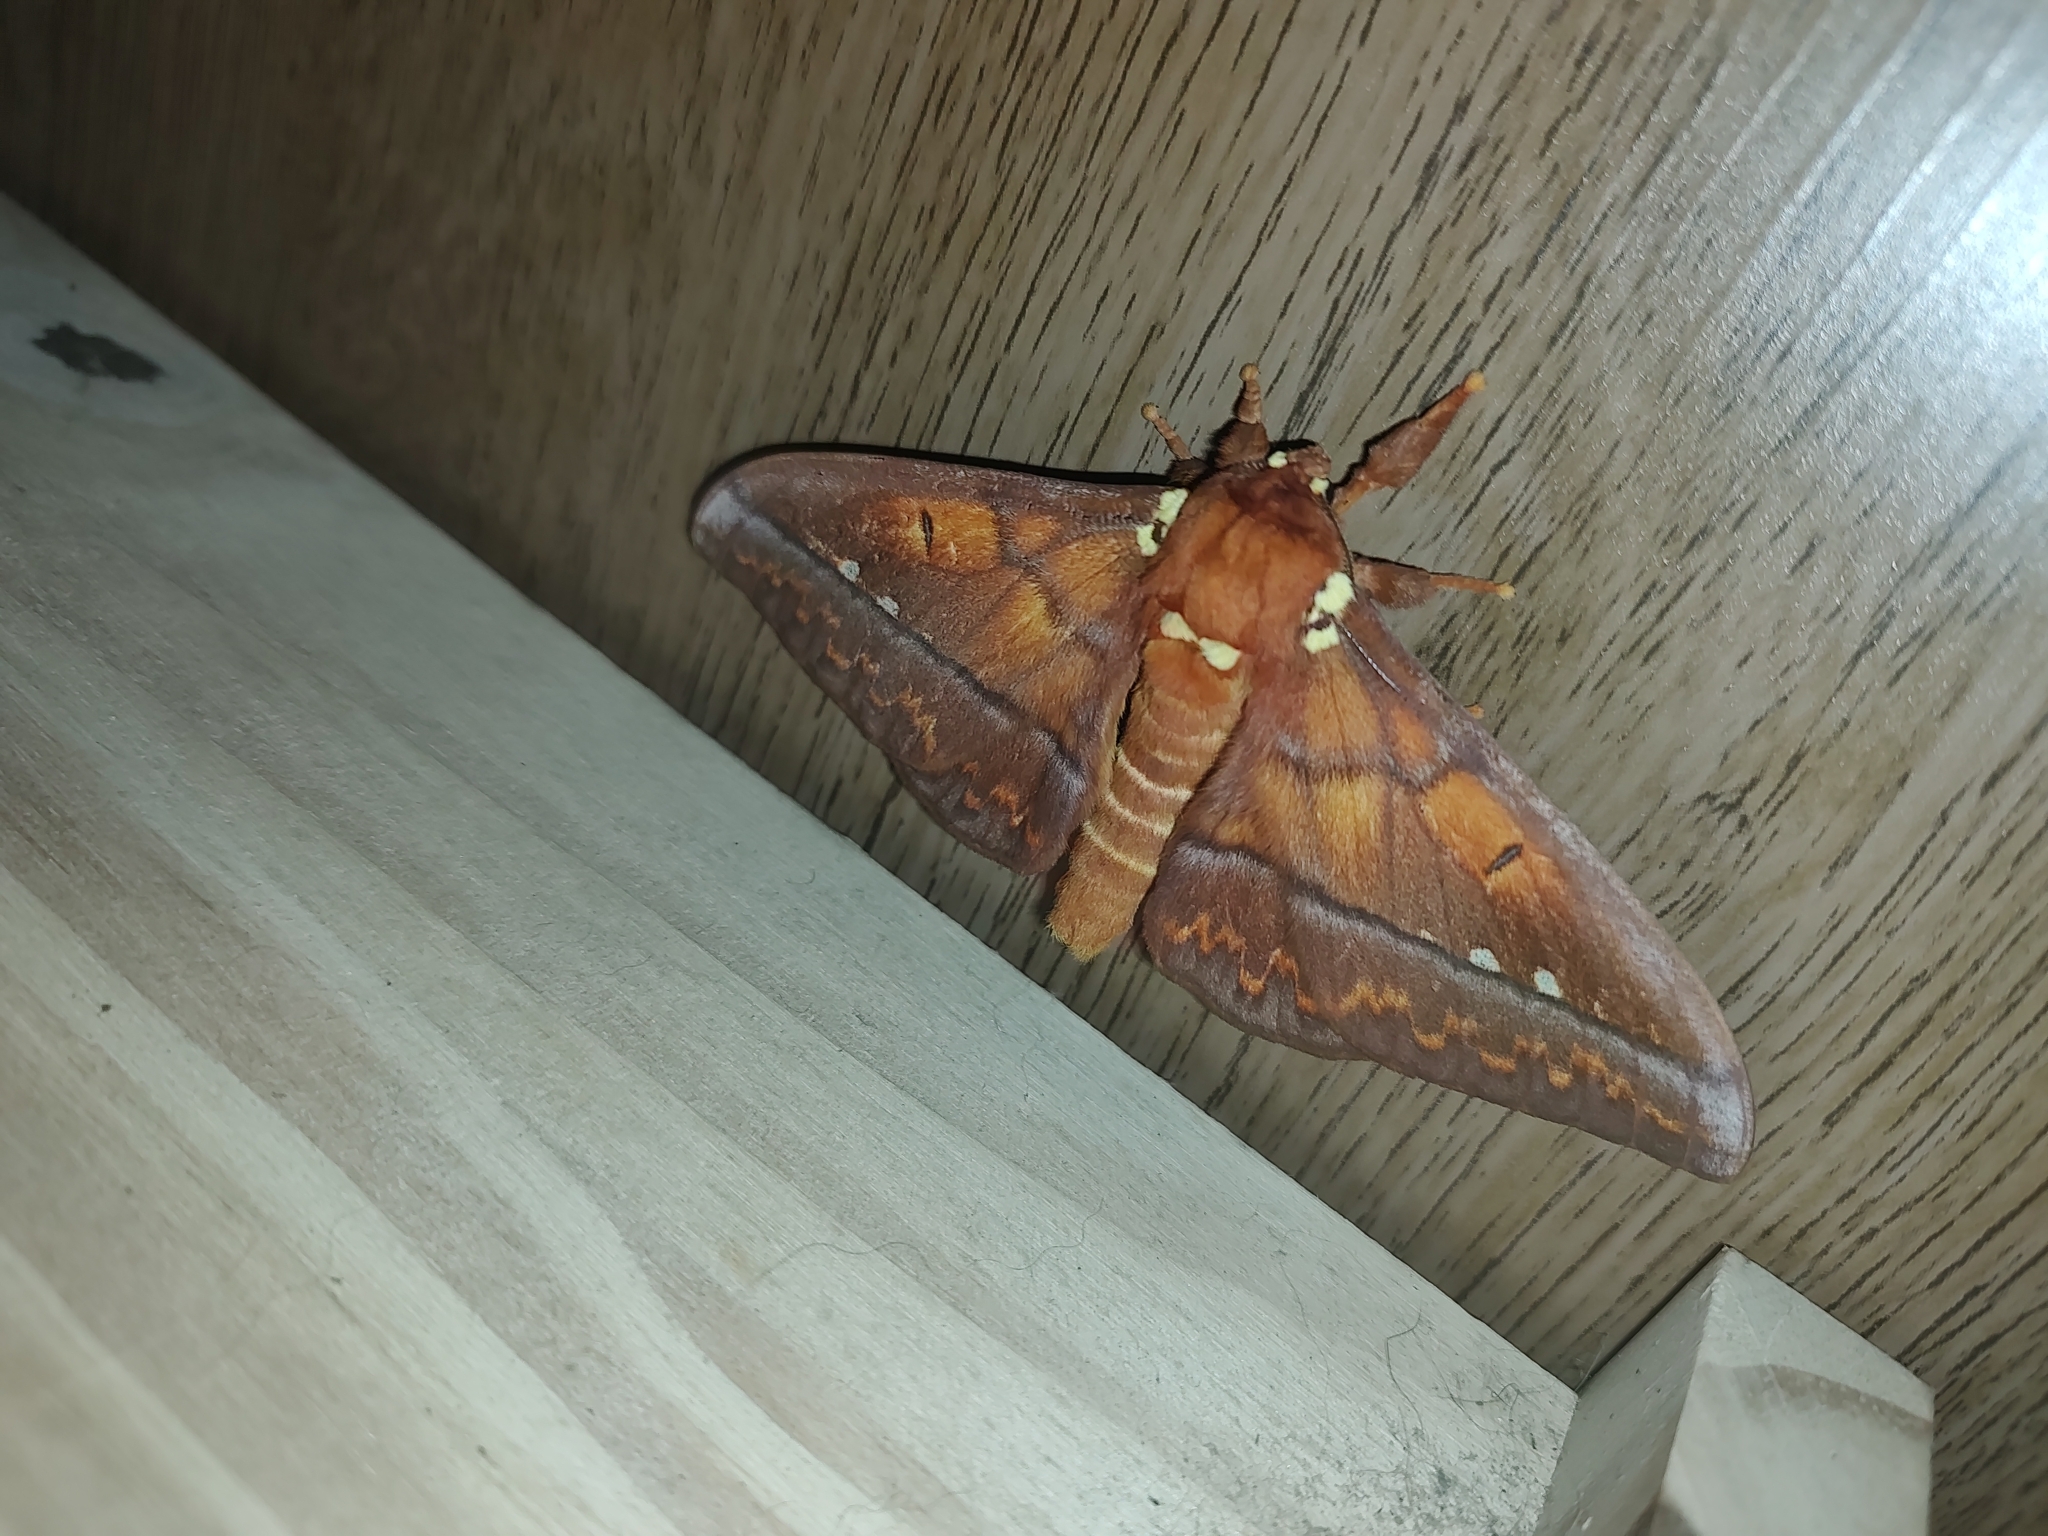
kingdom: Animalia
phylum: Arthropoda
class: Insecta
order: Lepidoptera
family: Saturniidae
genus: Procitheronia
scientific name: Procitheronia principalis
